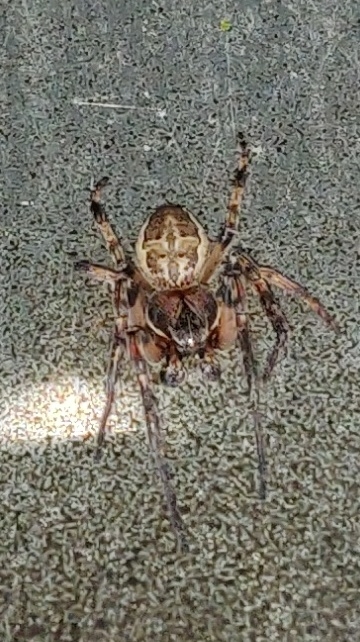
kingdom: Animalia
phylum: Arthropoda
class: Arachnida
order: Araneae
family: Araneidae
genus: Larinioides
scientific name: Larinioides cornutus
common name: Furrow orbweaver
